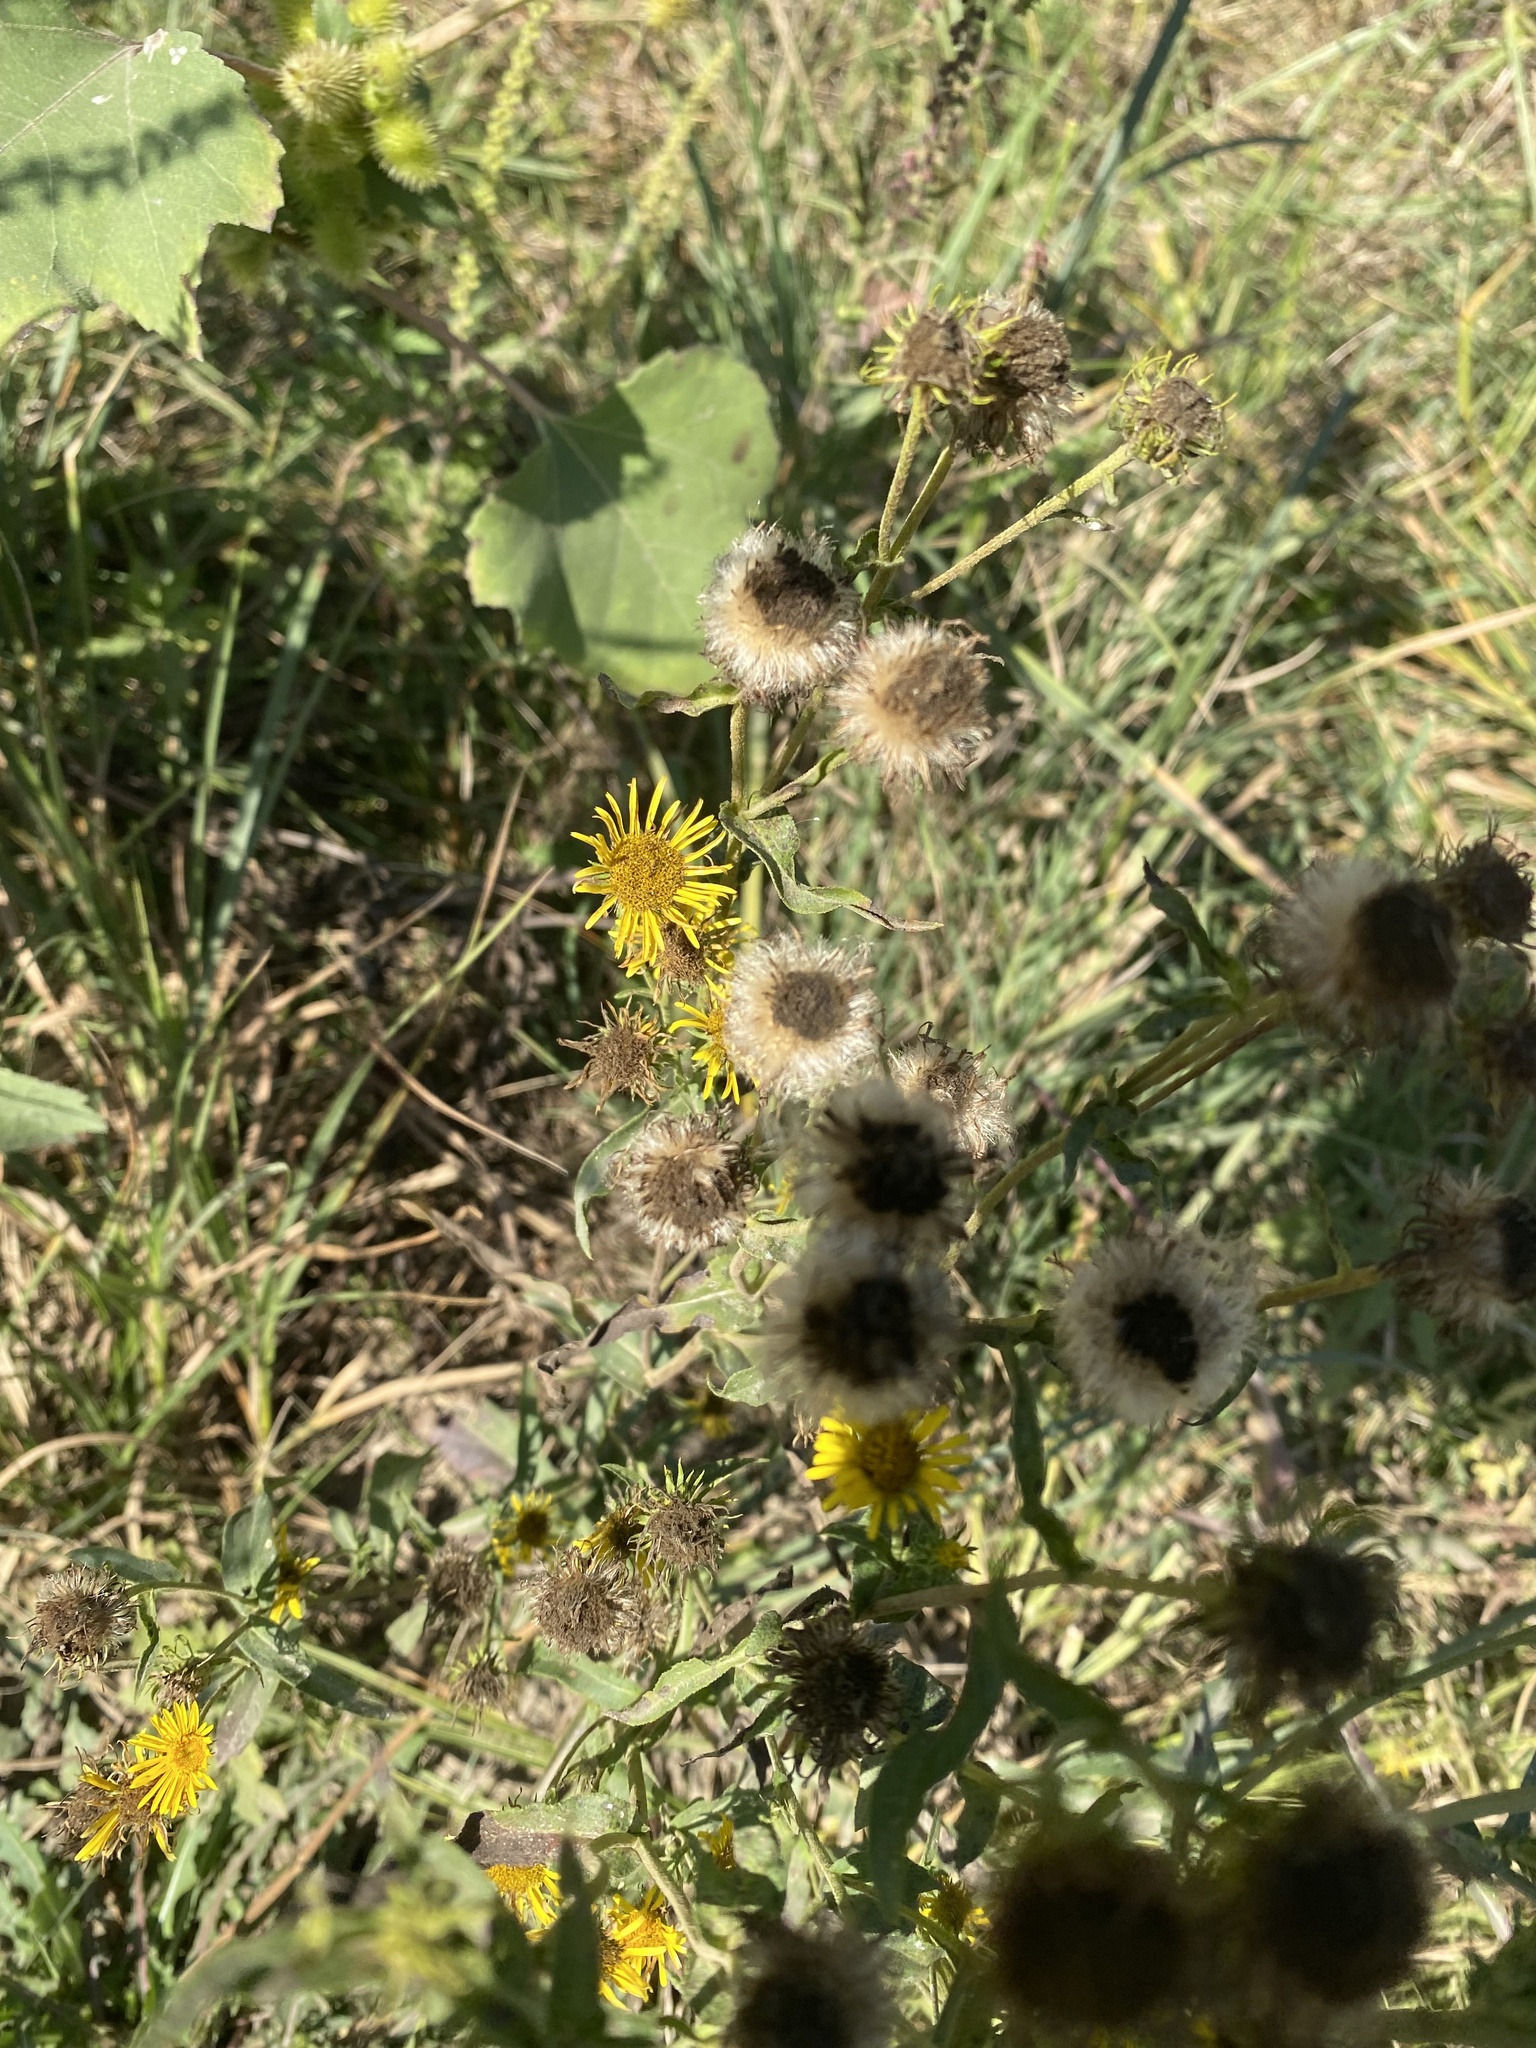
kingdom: Plantae
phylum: Tracheophyta
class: Magnoliopsida
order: Asterales
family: Asteraceae
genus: Pentanema
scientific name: Pentanema britannicum
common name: British elecampane
